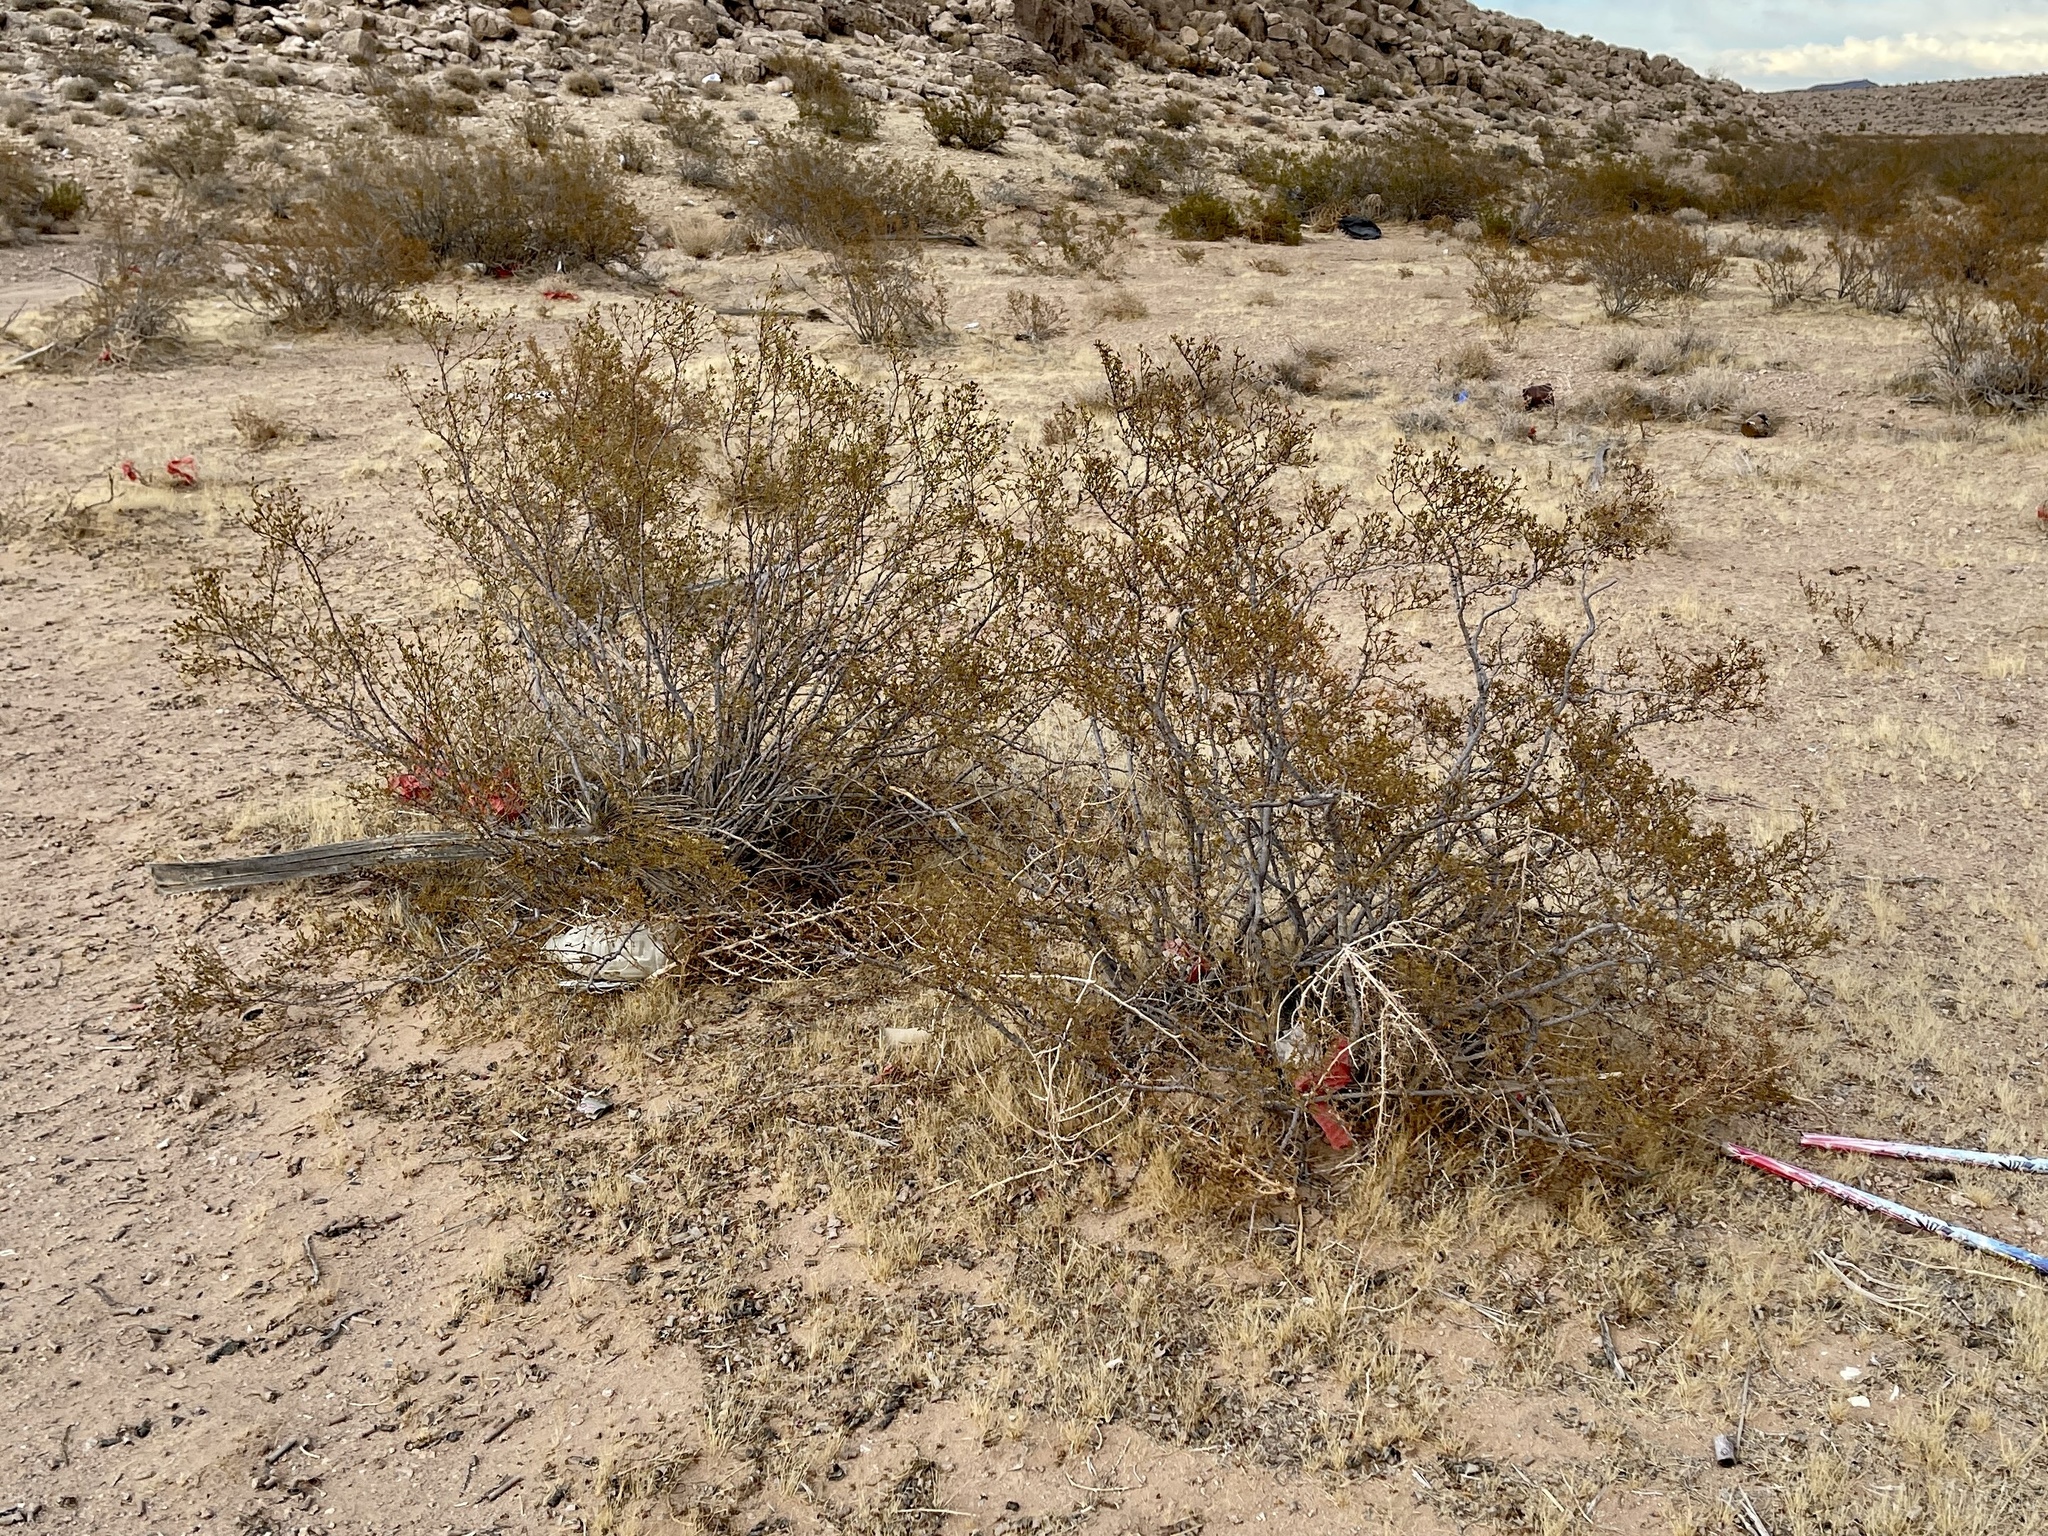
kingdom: Plantae
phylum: Tracheophyta
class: Magnoliopsida
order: Zygophyllales
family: Zygophyllaceae
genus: Larrea
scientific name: Larrea tridentata
